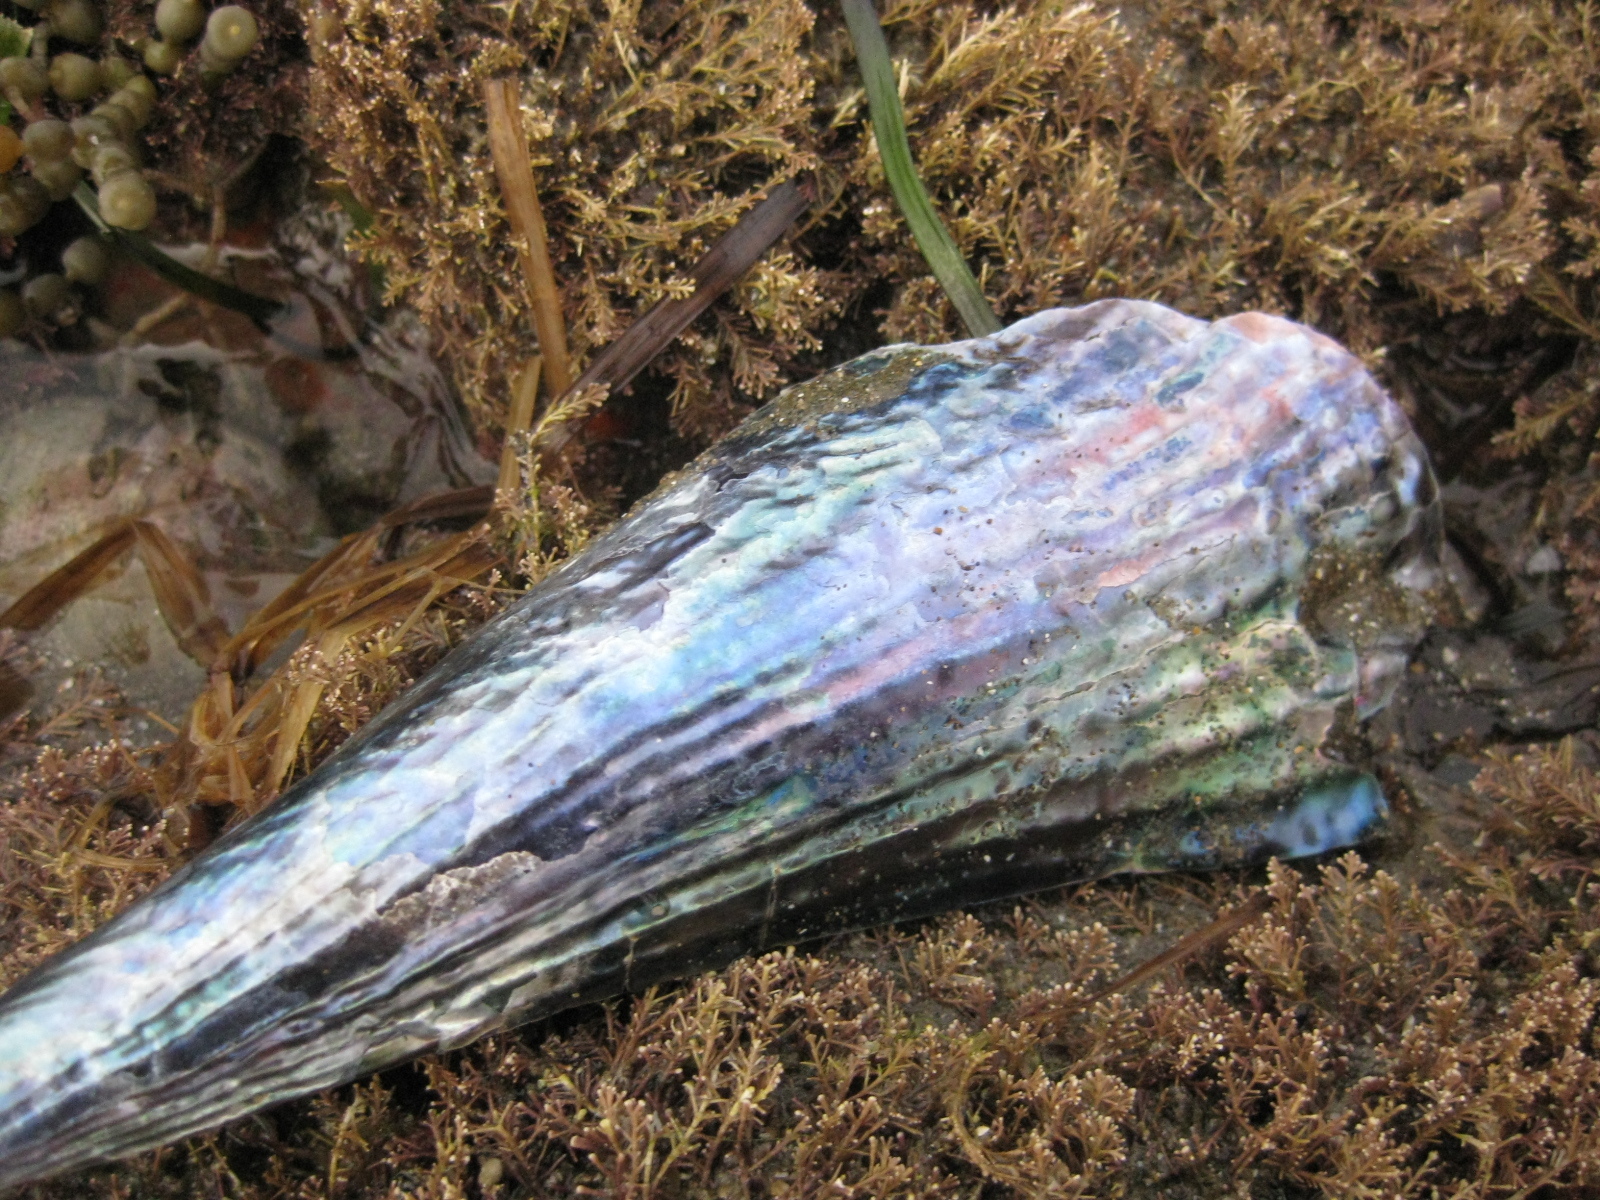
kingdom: Animalia
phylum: Mollusca
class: Bivalvia
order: Ostreida
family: Pinnidae
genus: Atrina
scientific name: Atrina zelandica
